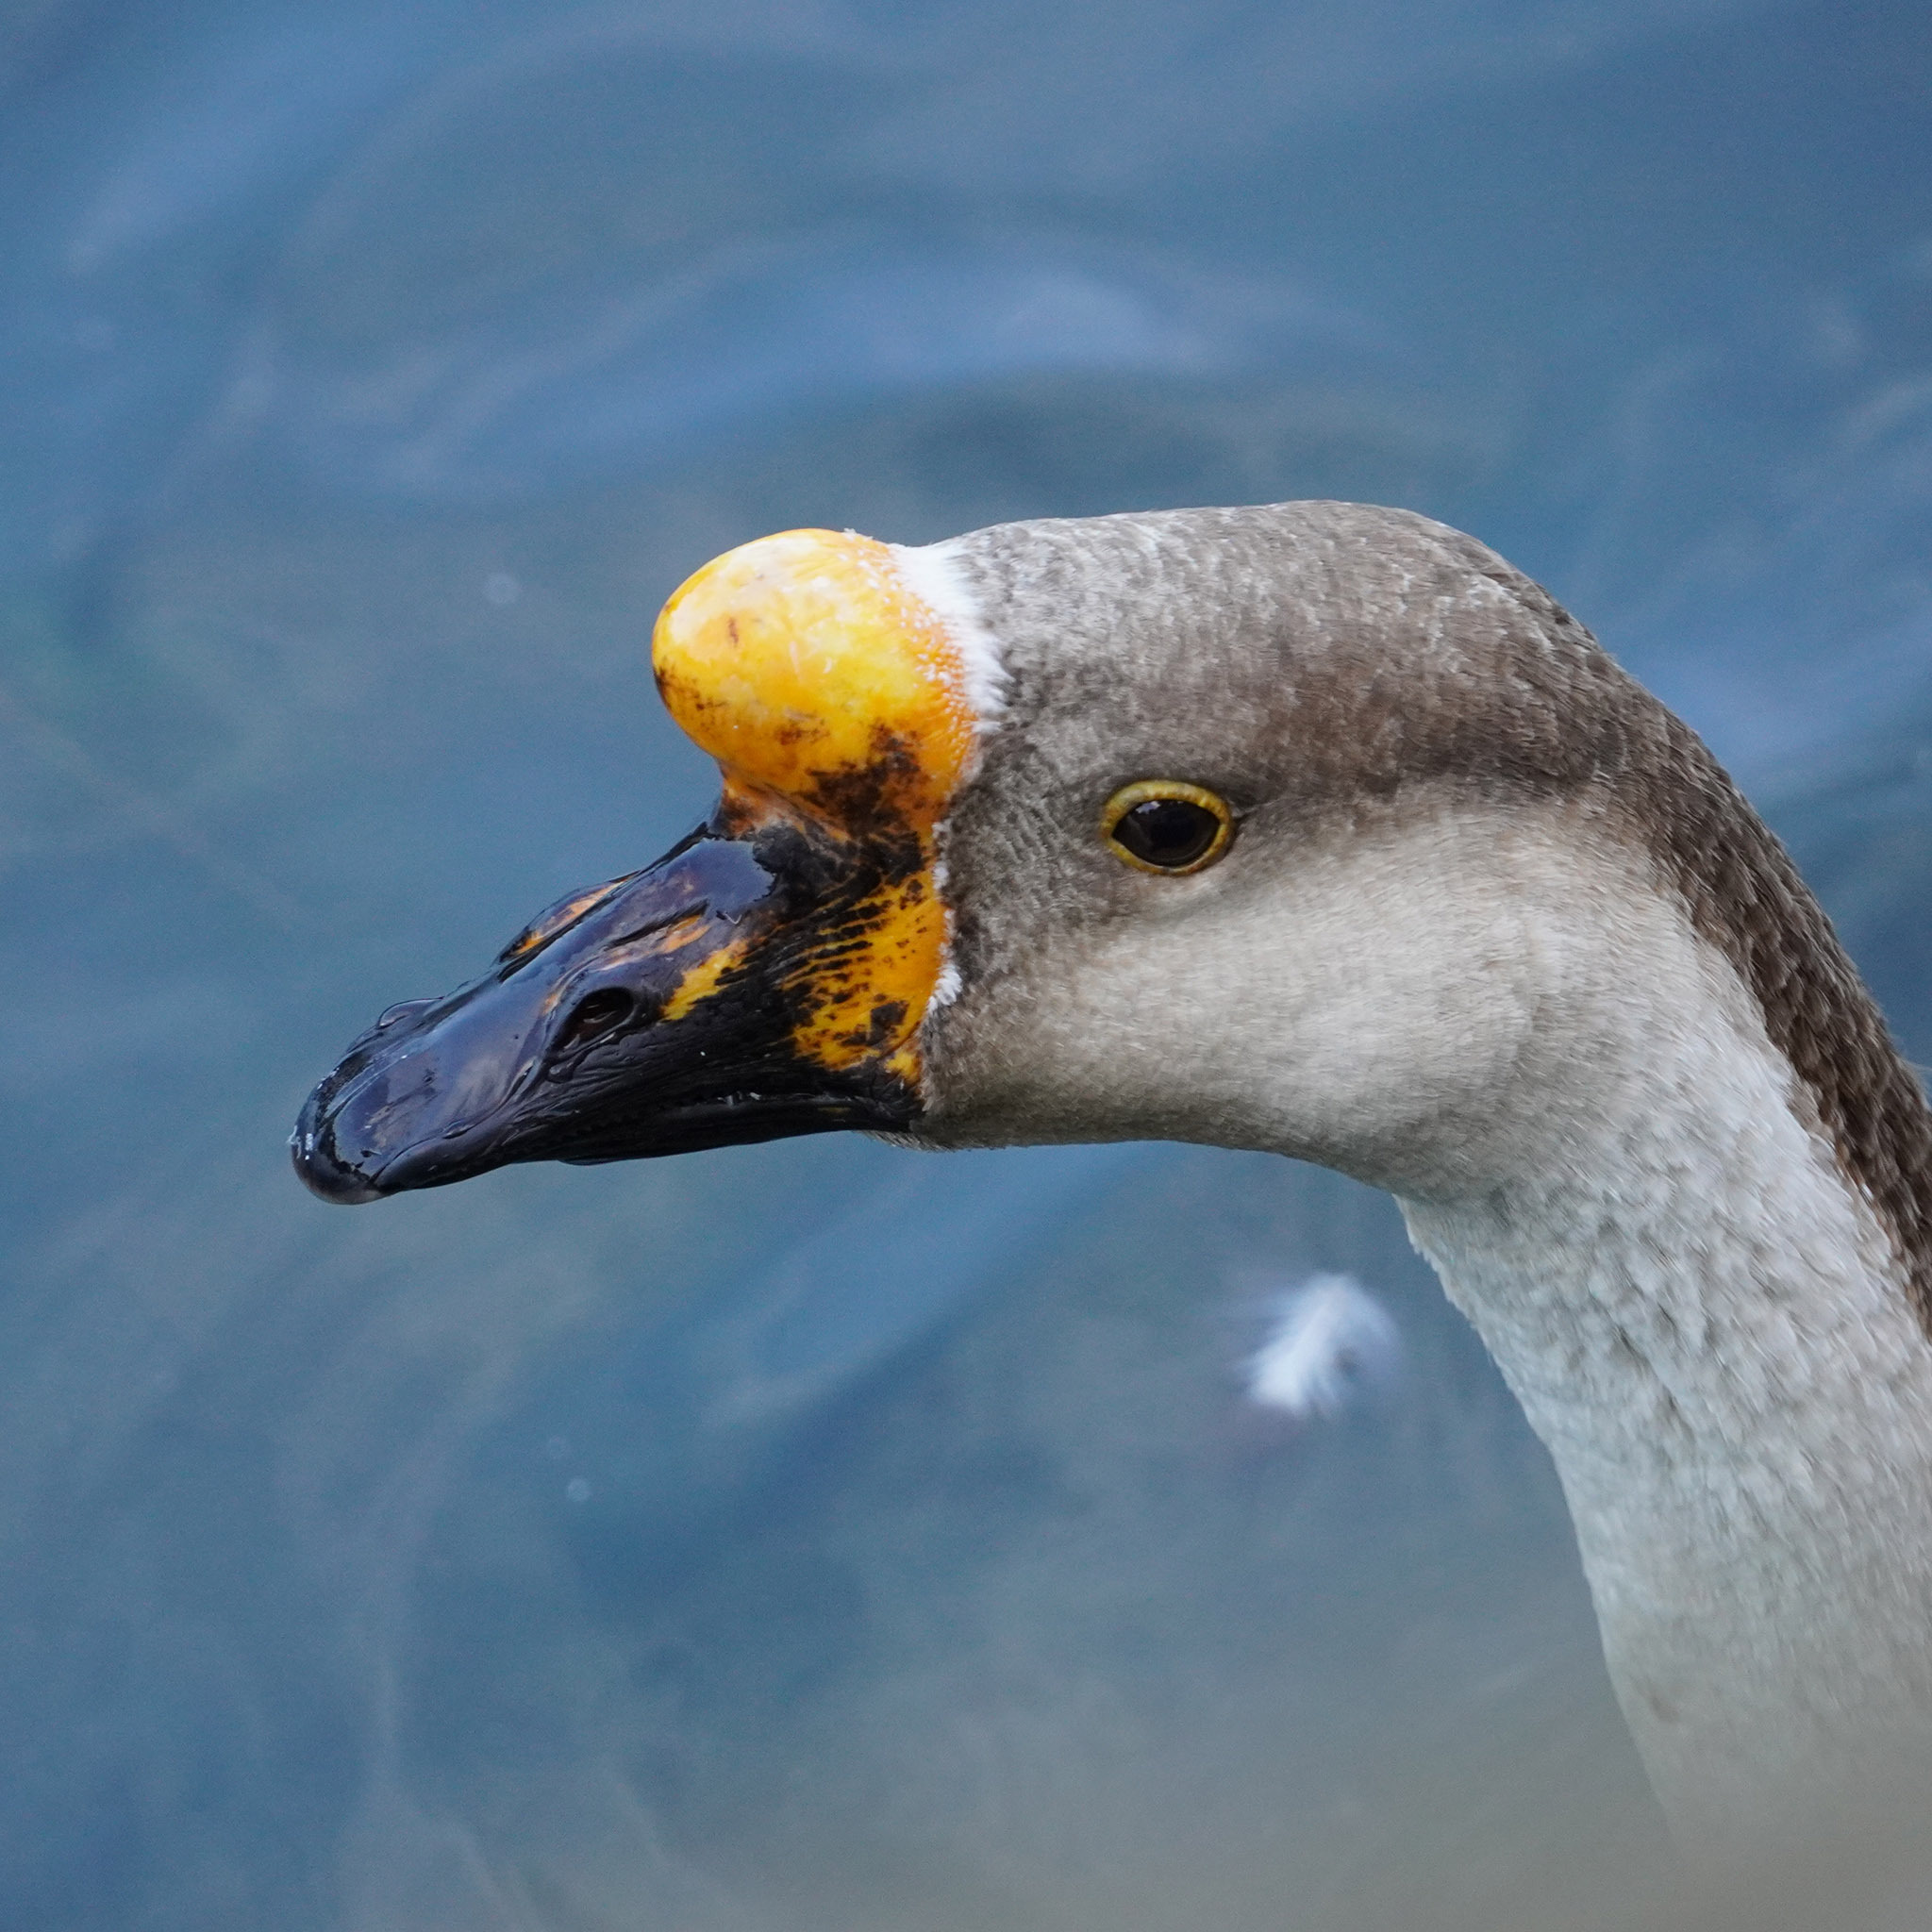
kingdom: Animalia
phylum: Chordata
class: Aves
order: Anseriformes
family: Anatidae
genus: Anser
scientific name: Anser
